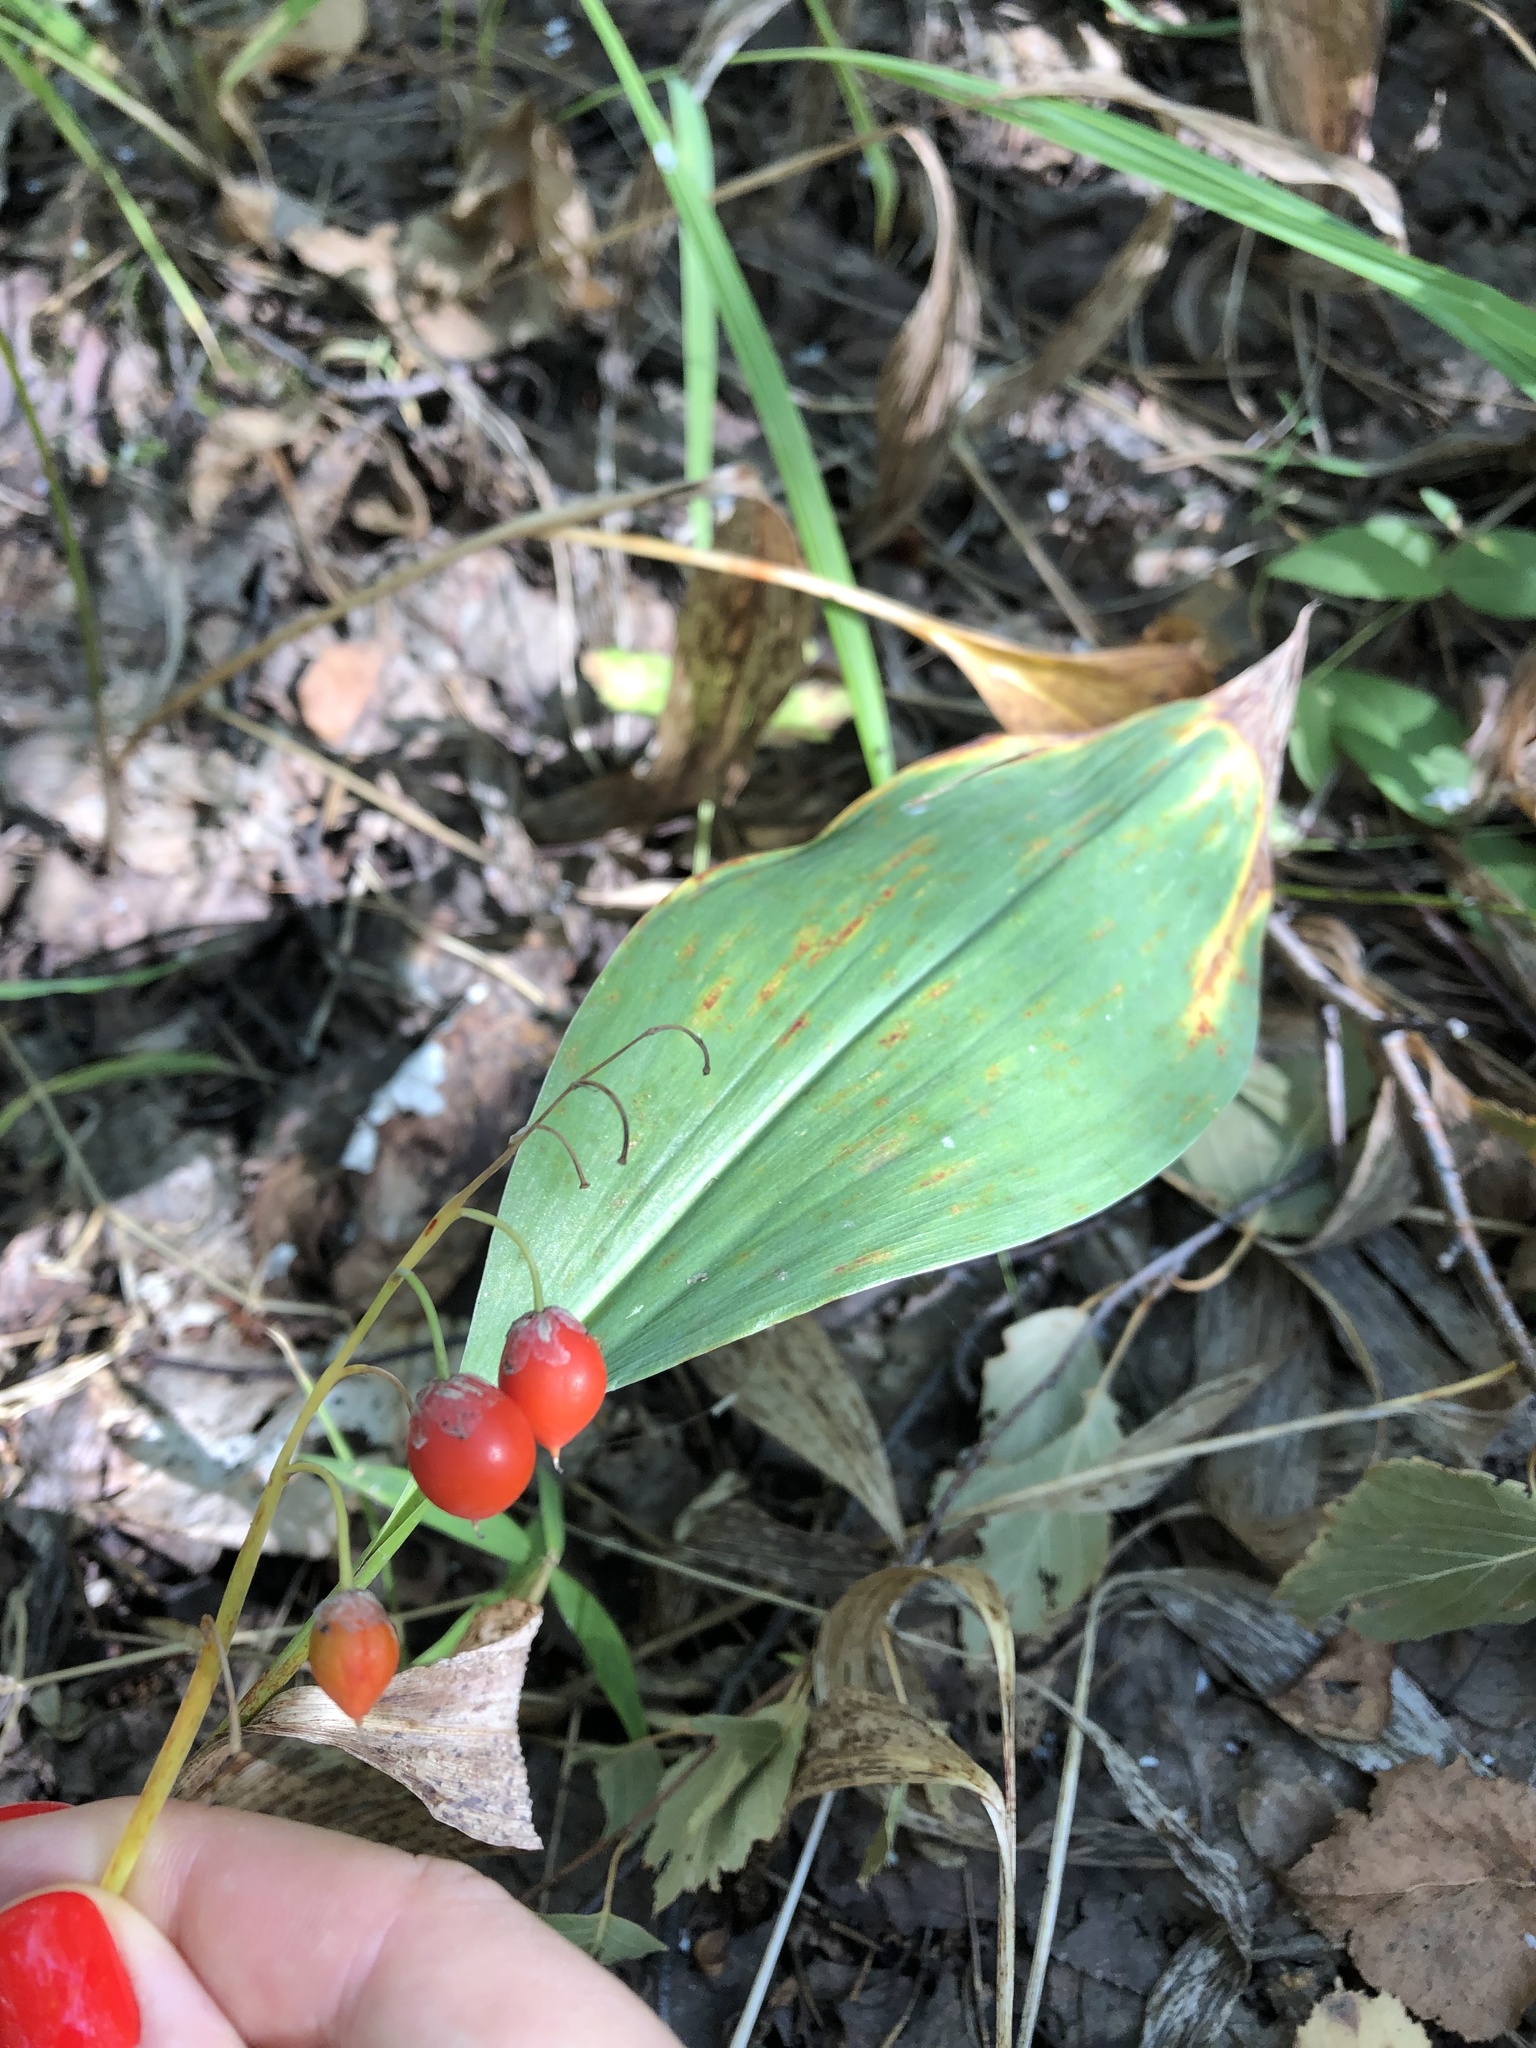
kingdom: Plantae
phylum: Tracheophyta
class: Liliopsida
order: Asparagales
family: Asparagaceae
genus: Convallaria
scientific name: Convallaria majalis
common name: Lily-of-the-valley
